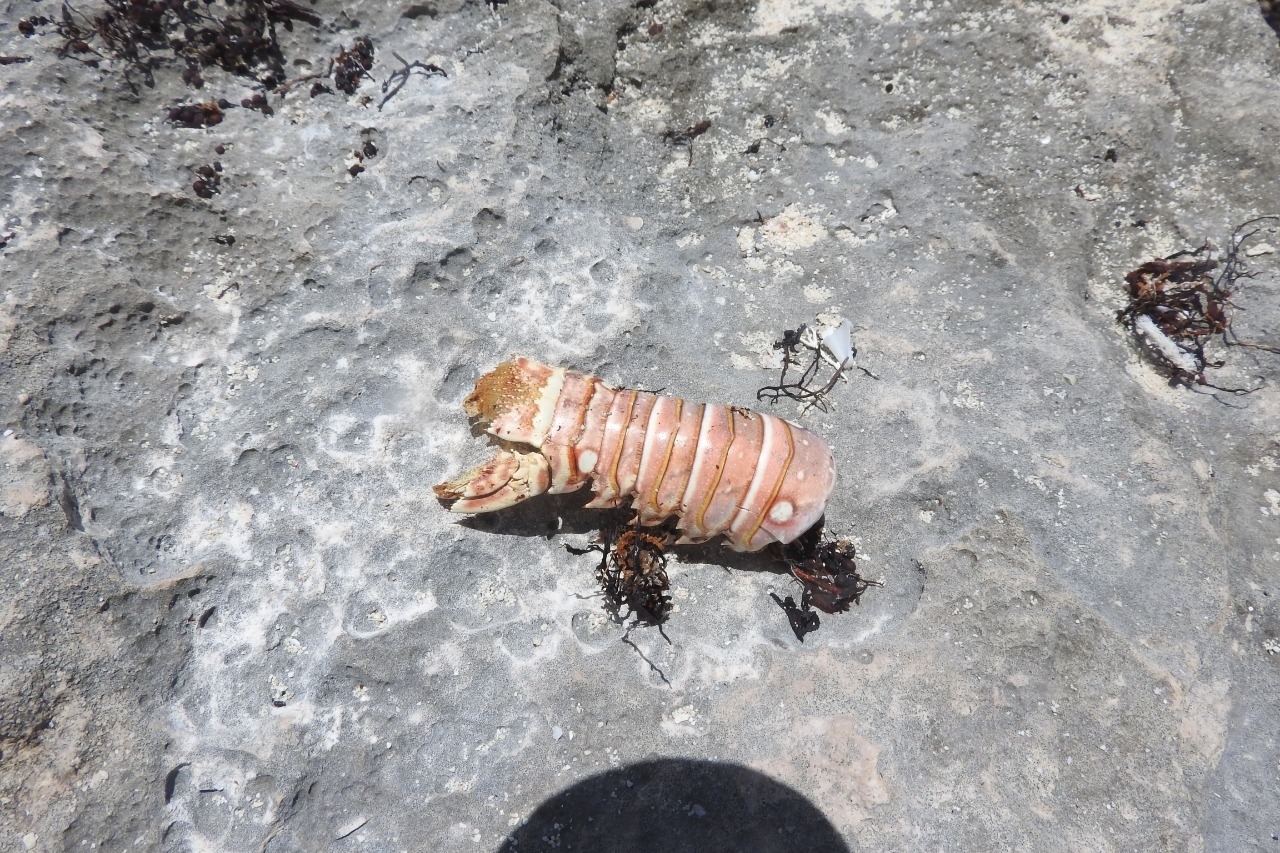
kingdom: Animalia
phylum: Arthropoda
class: Malacostraca
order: Decapoda
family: Palinuridae
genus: Panulirus
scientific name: Panulirus argus
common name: Caribbean spiny lobster
